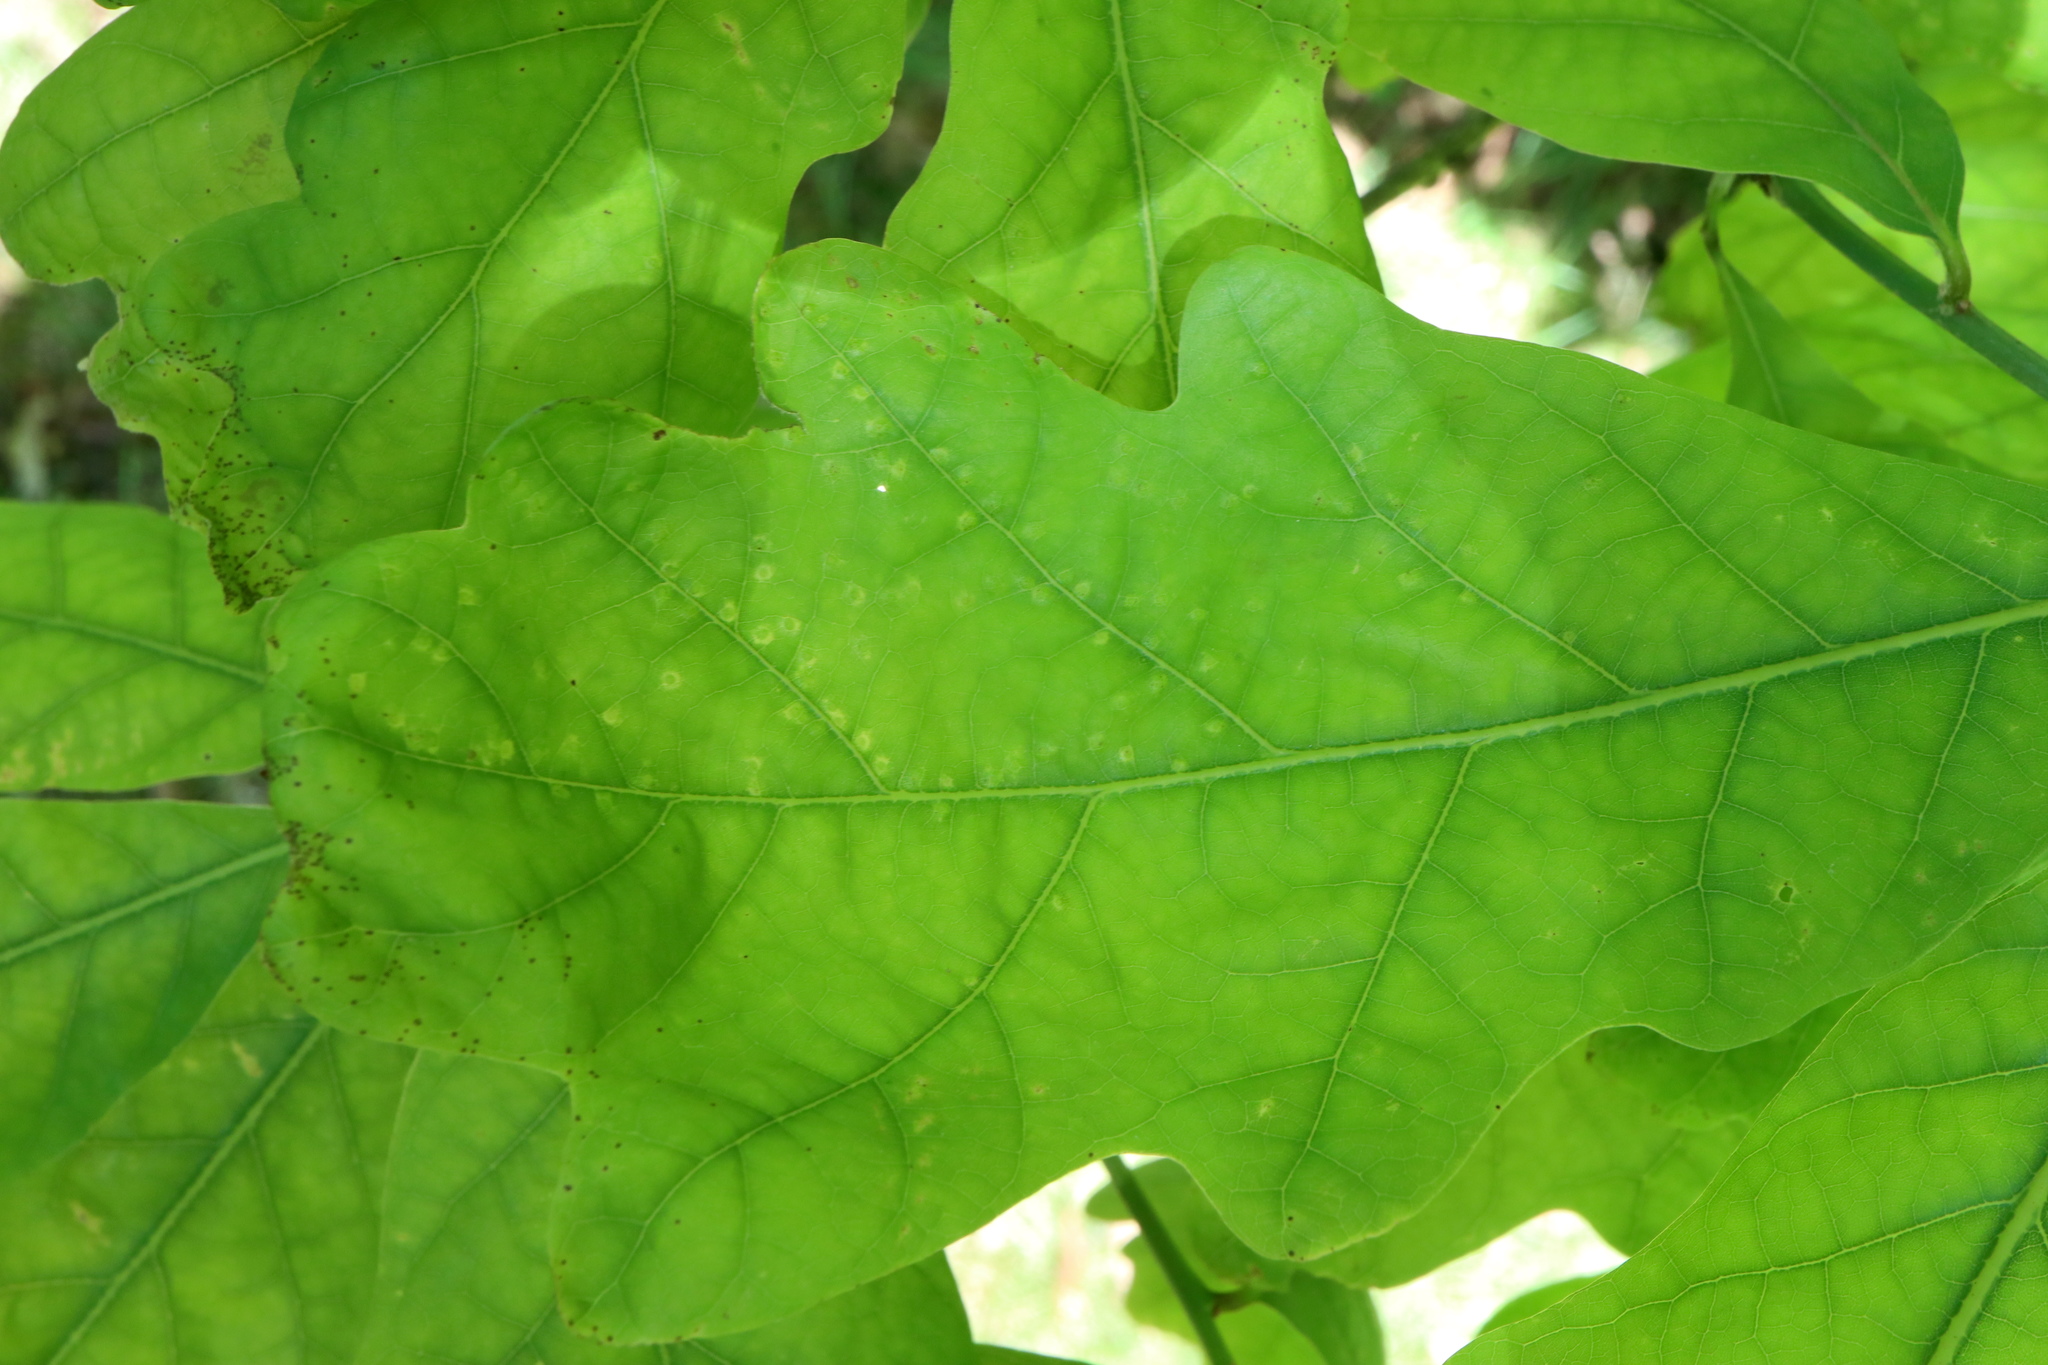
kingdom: Animalia
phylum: Arthropoda
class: Insecta
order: Hymenoptera
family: Cynipidae
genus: Neuroterus
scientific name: Neuroterus
